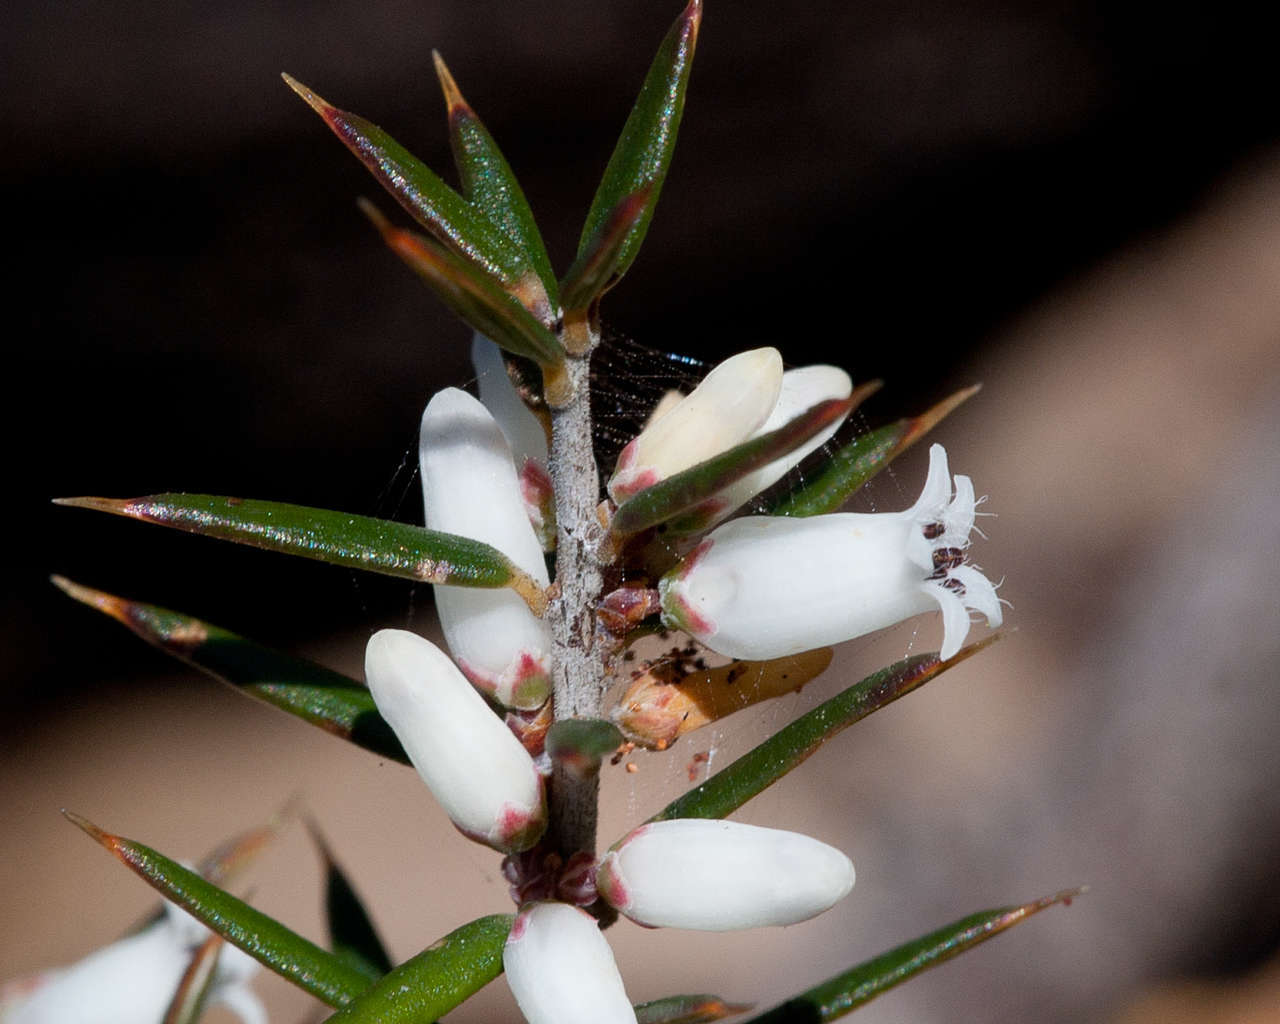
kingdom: Plantae
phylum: Tracheophyta
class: Magnoliopsida
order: Ericales
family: Ericaceae
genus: Lissanthe
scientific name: Lissanthe strigosa
